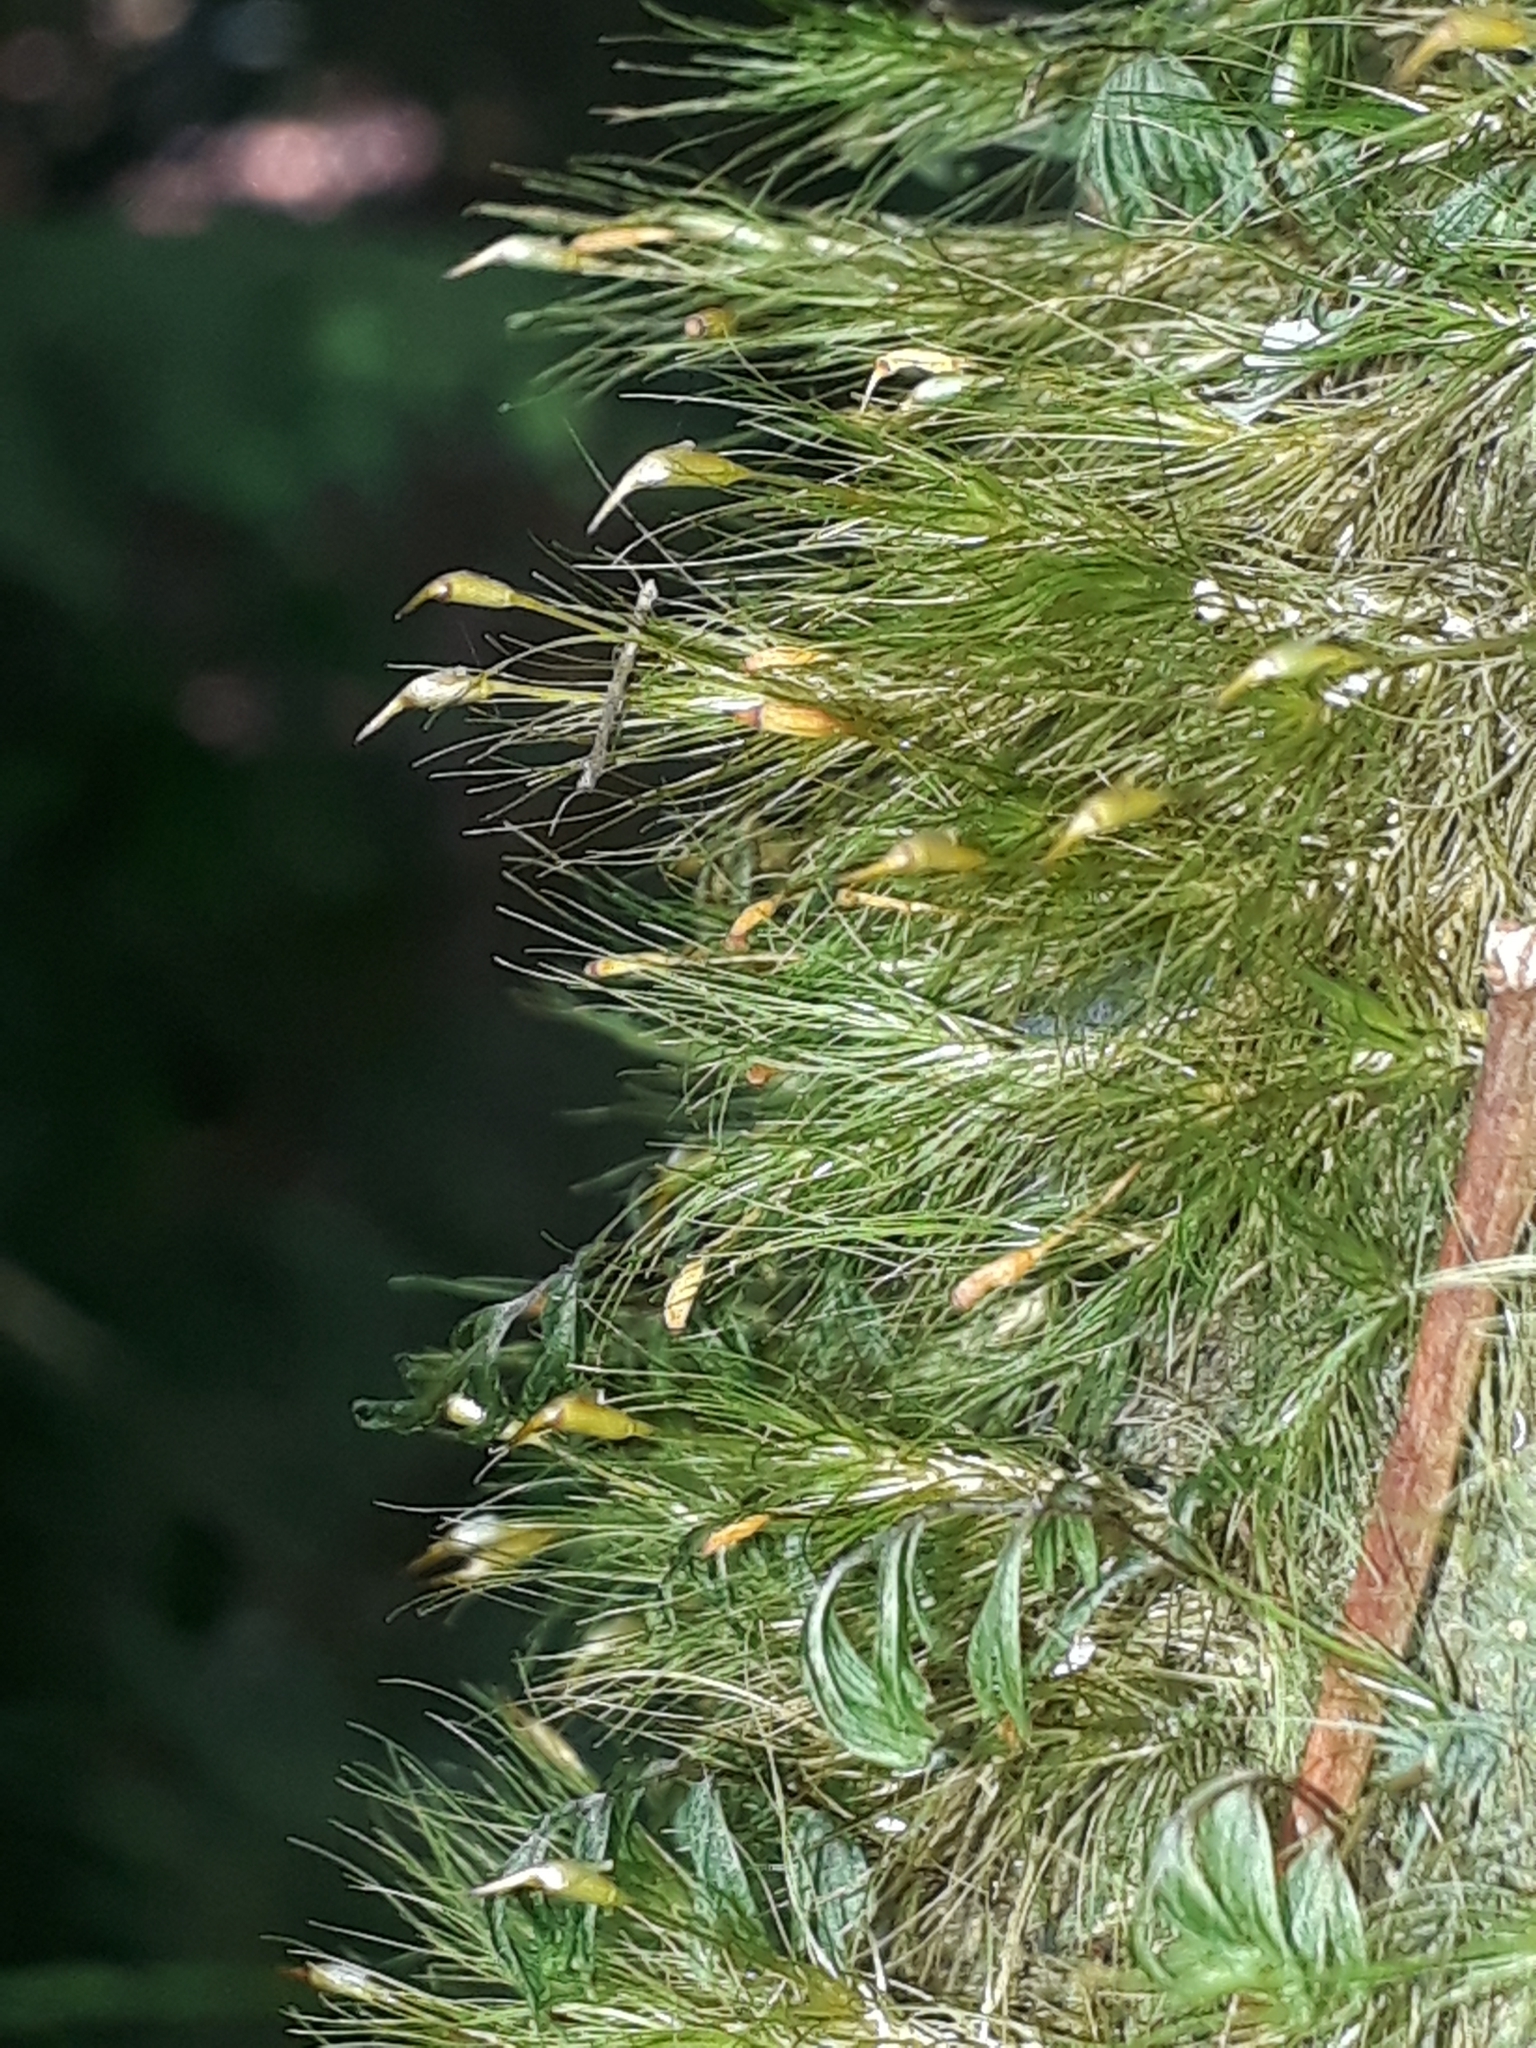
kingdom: Plantae
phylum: Bryophyta
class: Bryopsida
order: Dicranales
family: Dicranaceae
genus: Dicranoloma
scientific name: Dicranoloma menziesii
